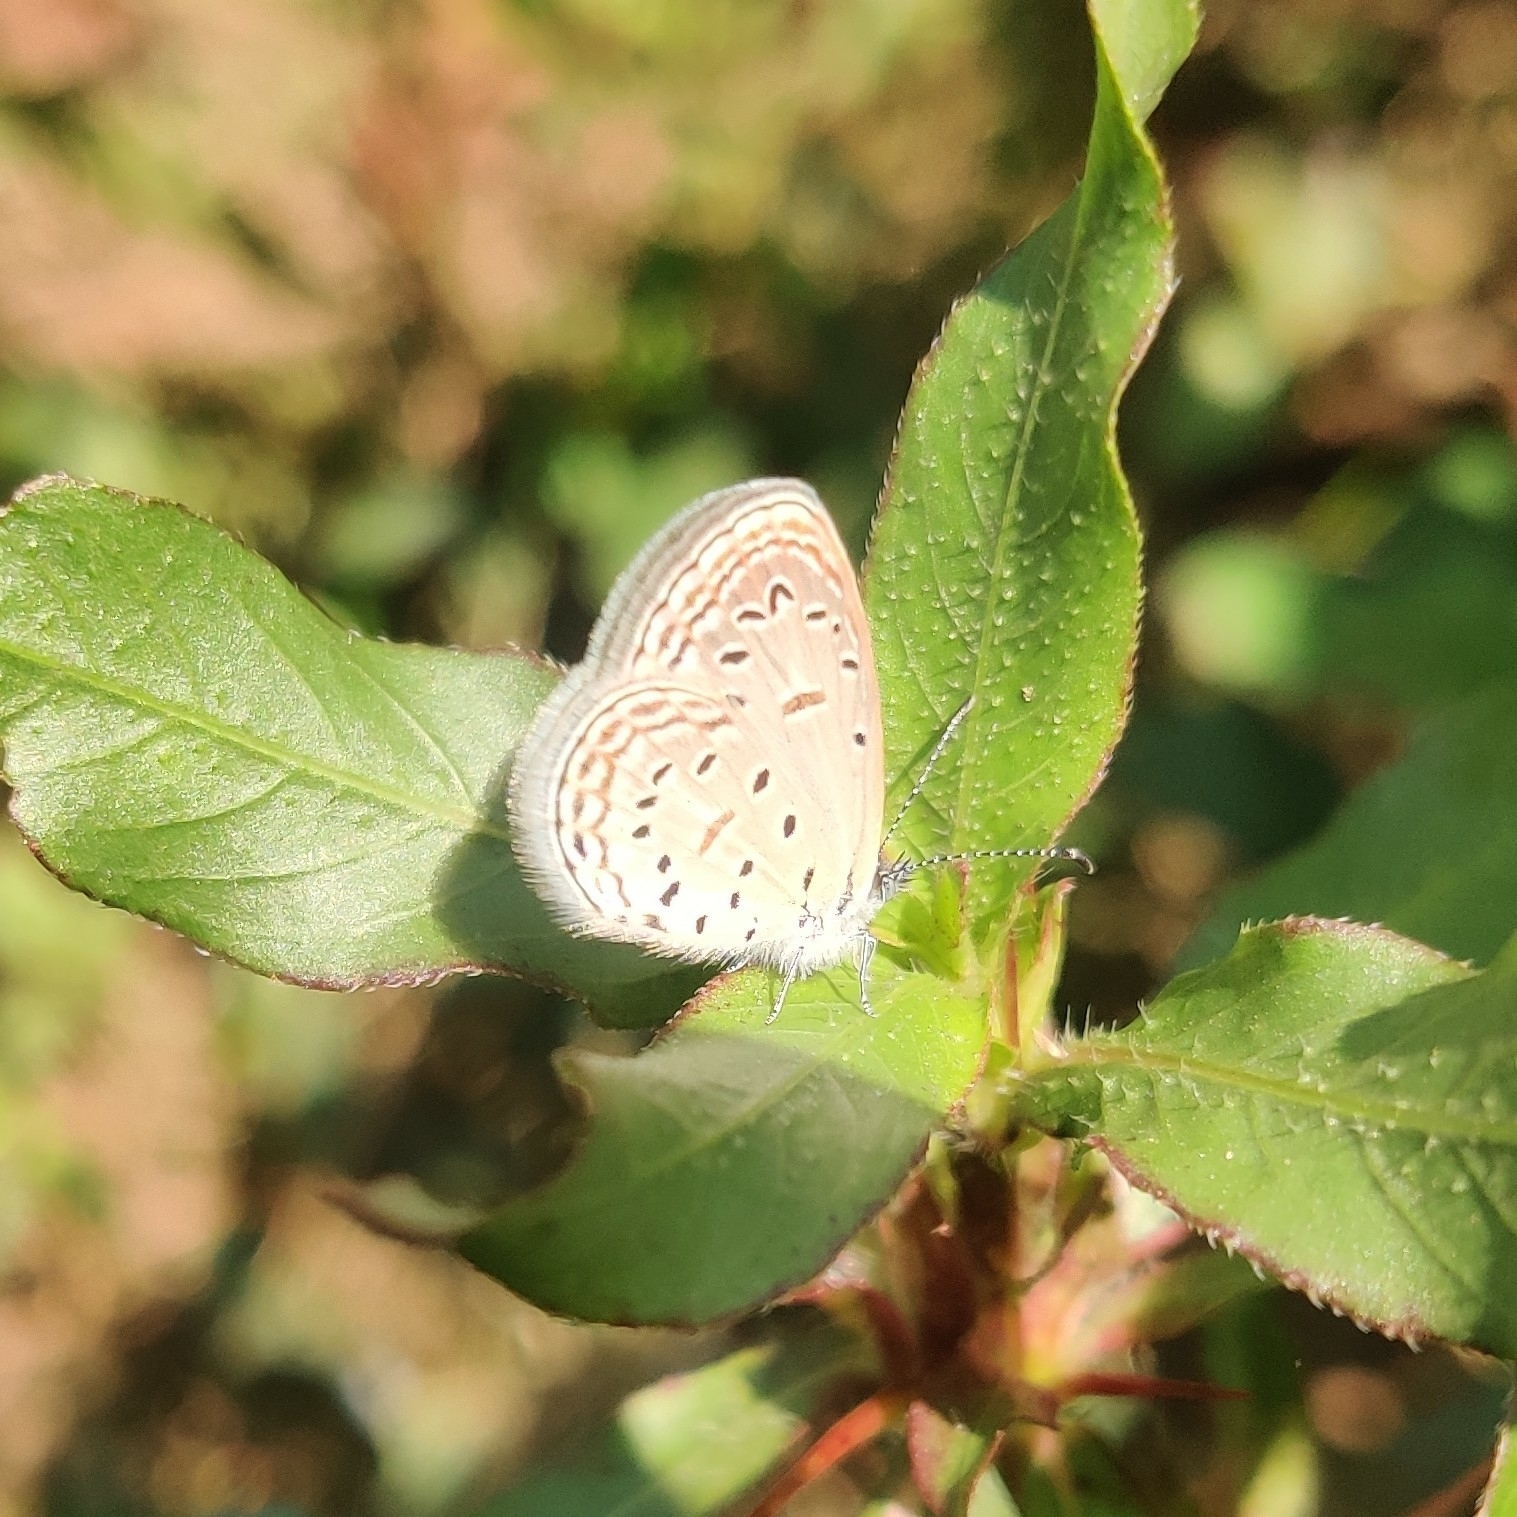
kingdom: Animalia
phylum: Arthropoda
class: Insecta
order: Lepidoptera
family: Lycaenidae
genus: Zizula
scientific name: Zizula hylax
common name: Gaika blue
